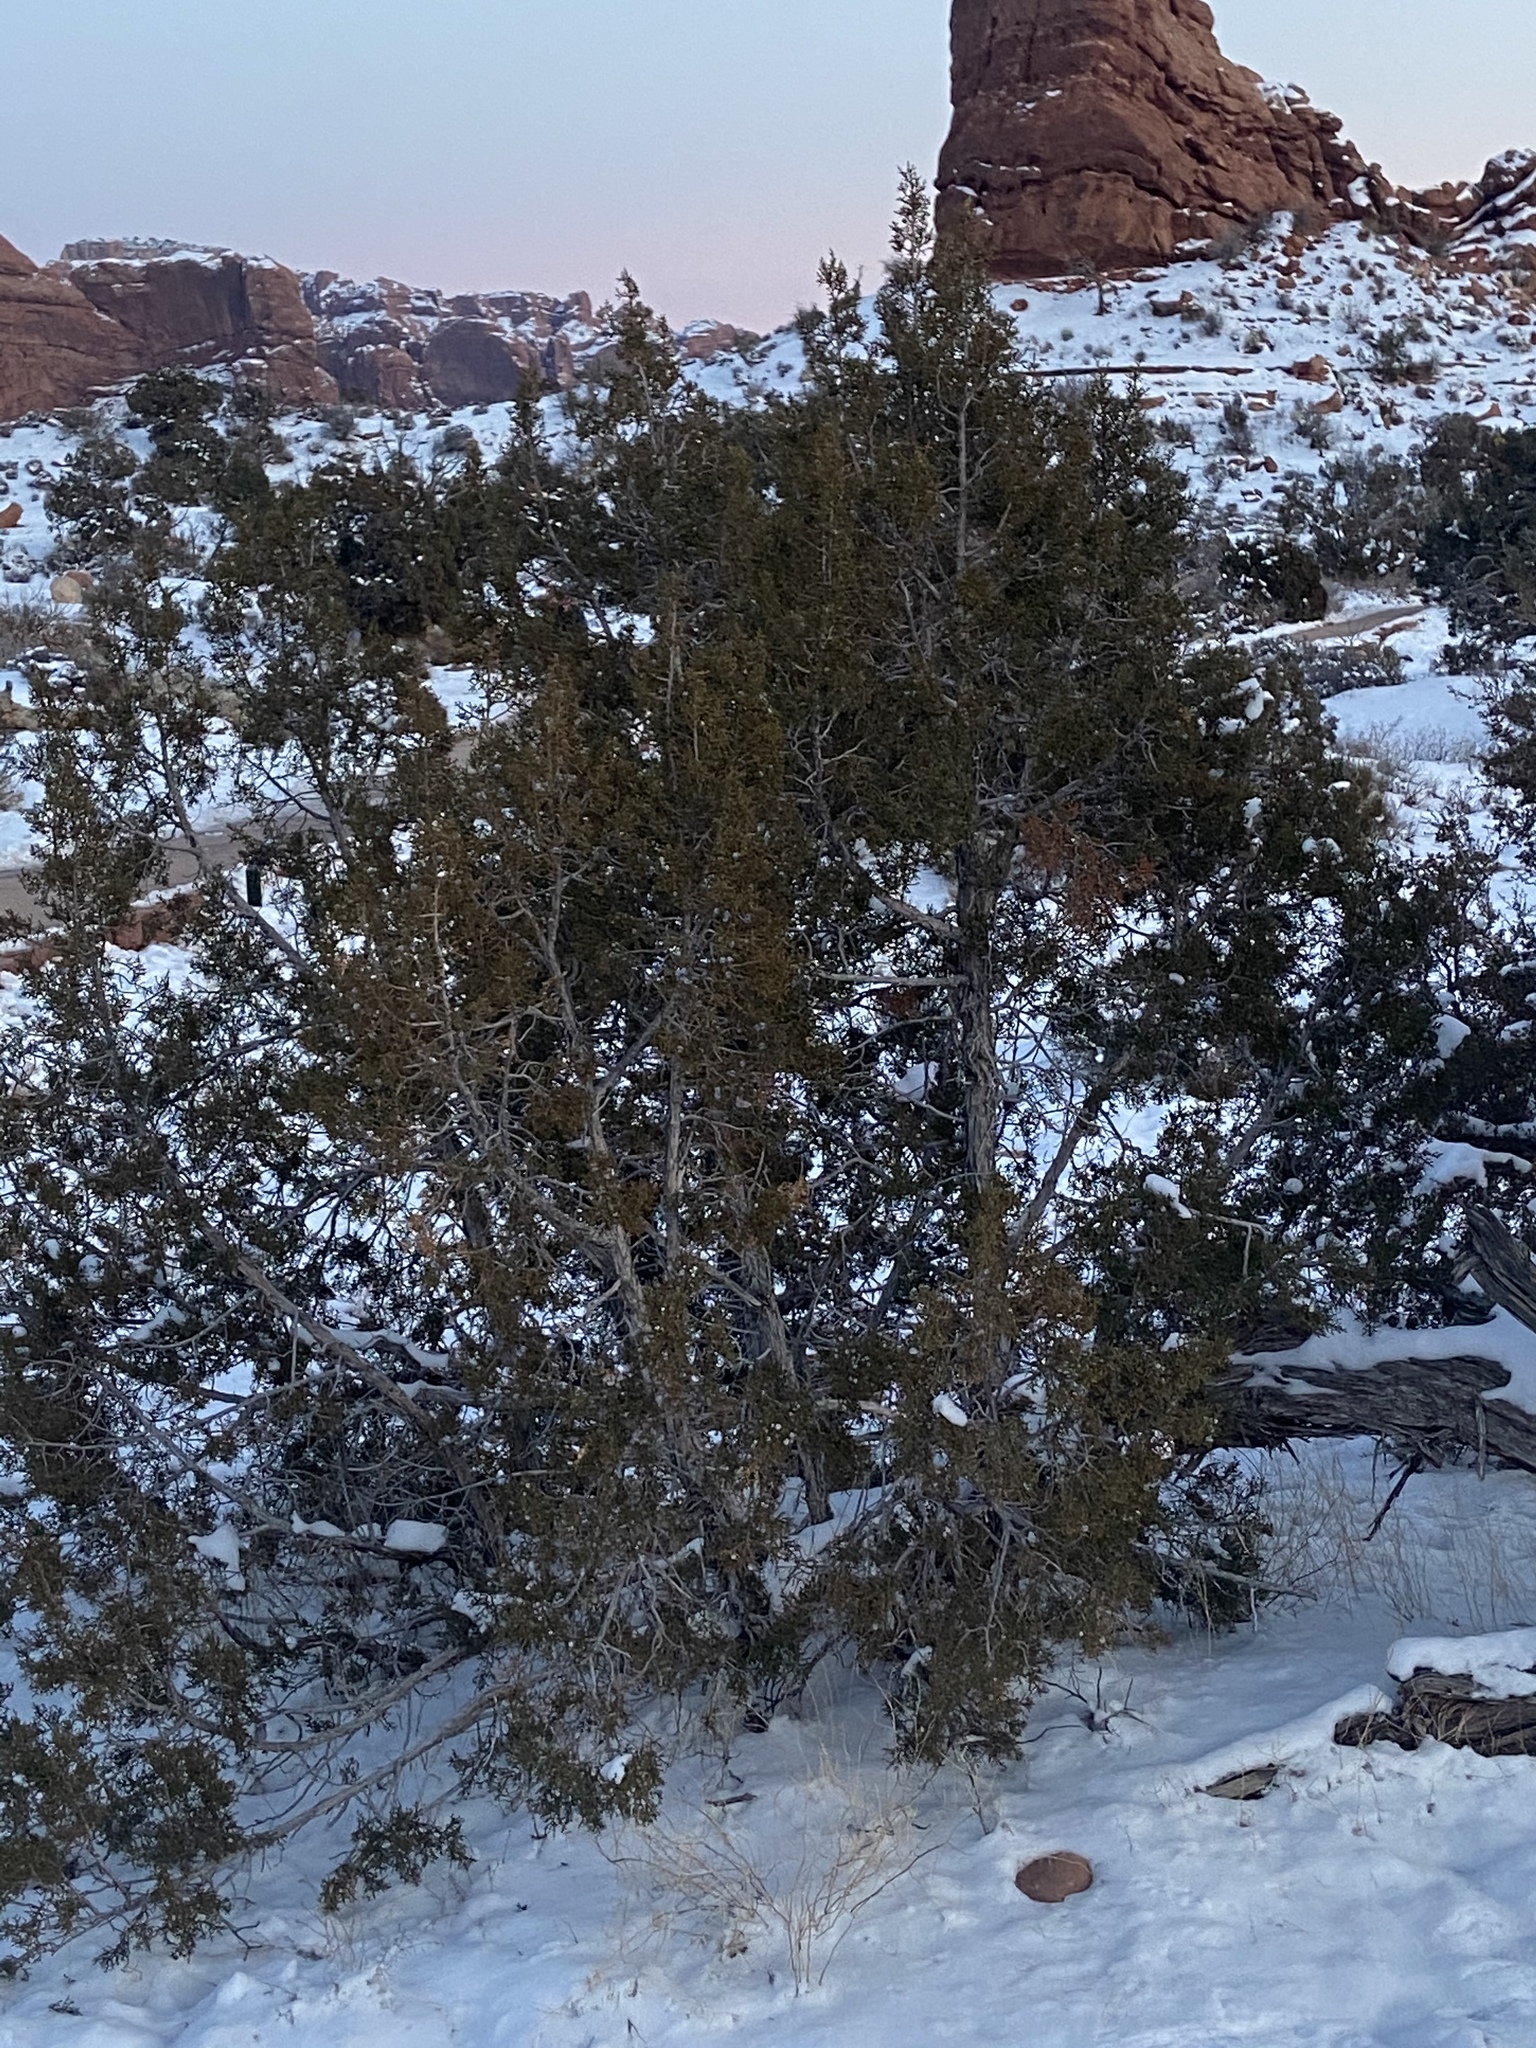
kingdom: Plantae
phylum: Tracheophyta
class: Pinopsida
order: Pinales
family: Cupressaceae
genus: Juniperus
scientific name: Juniperus osteosperma
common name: Utah juniper
